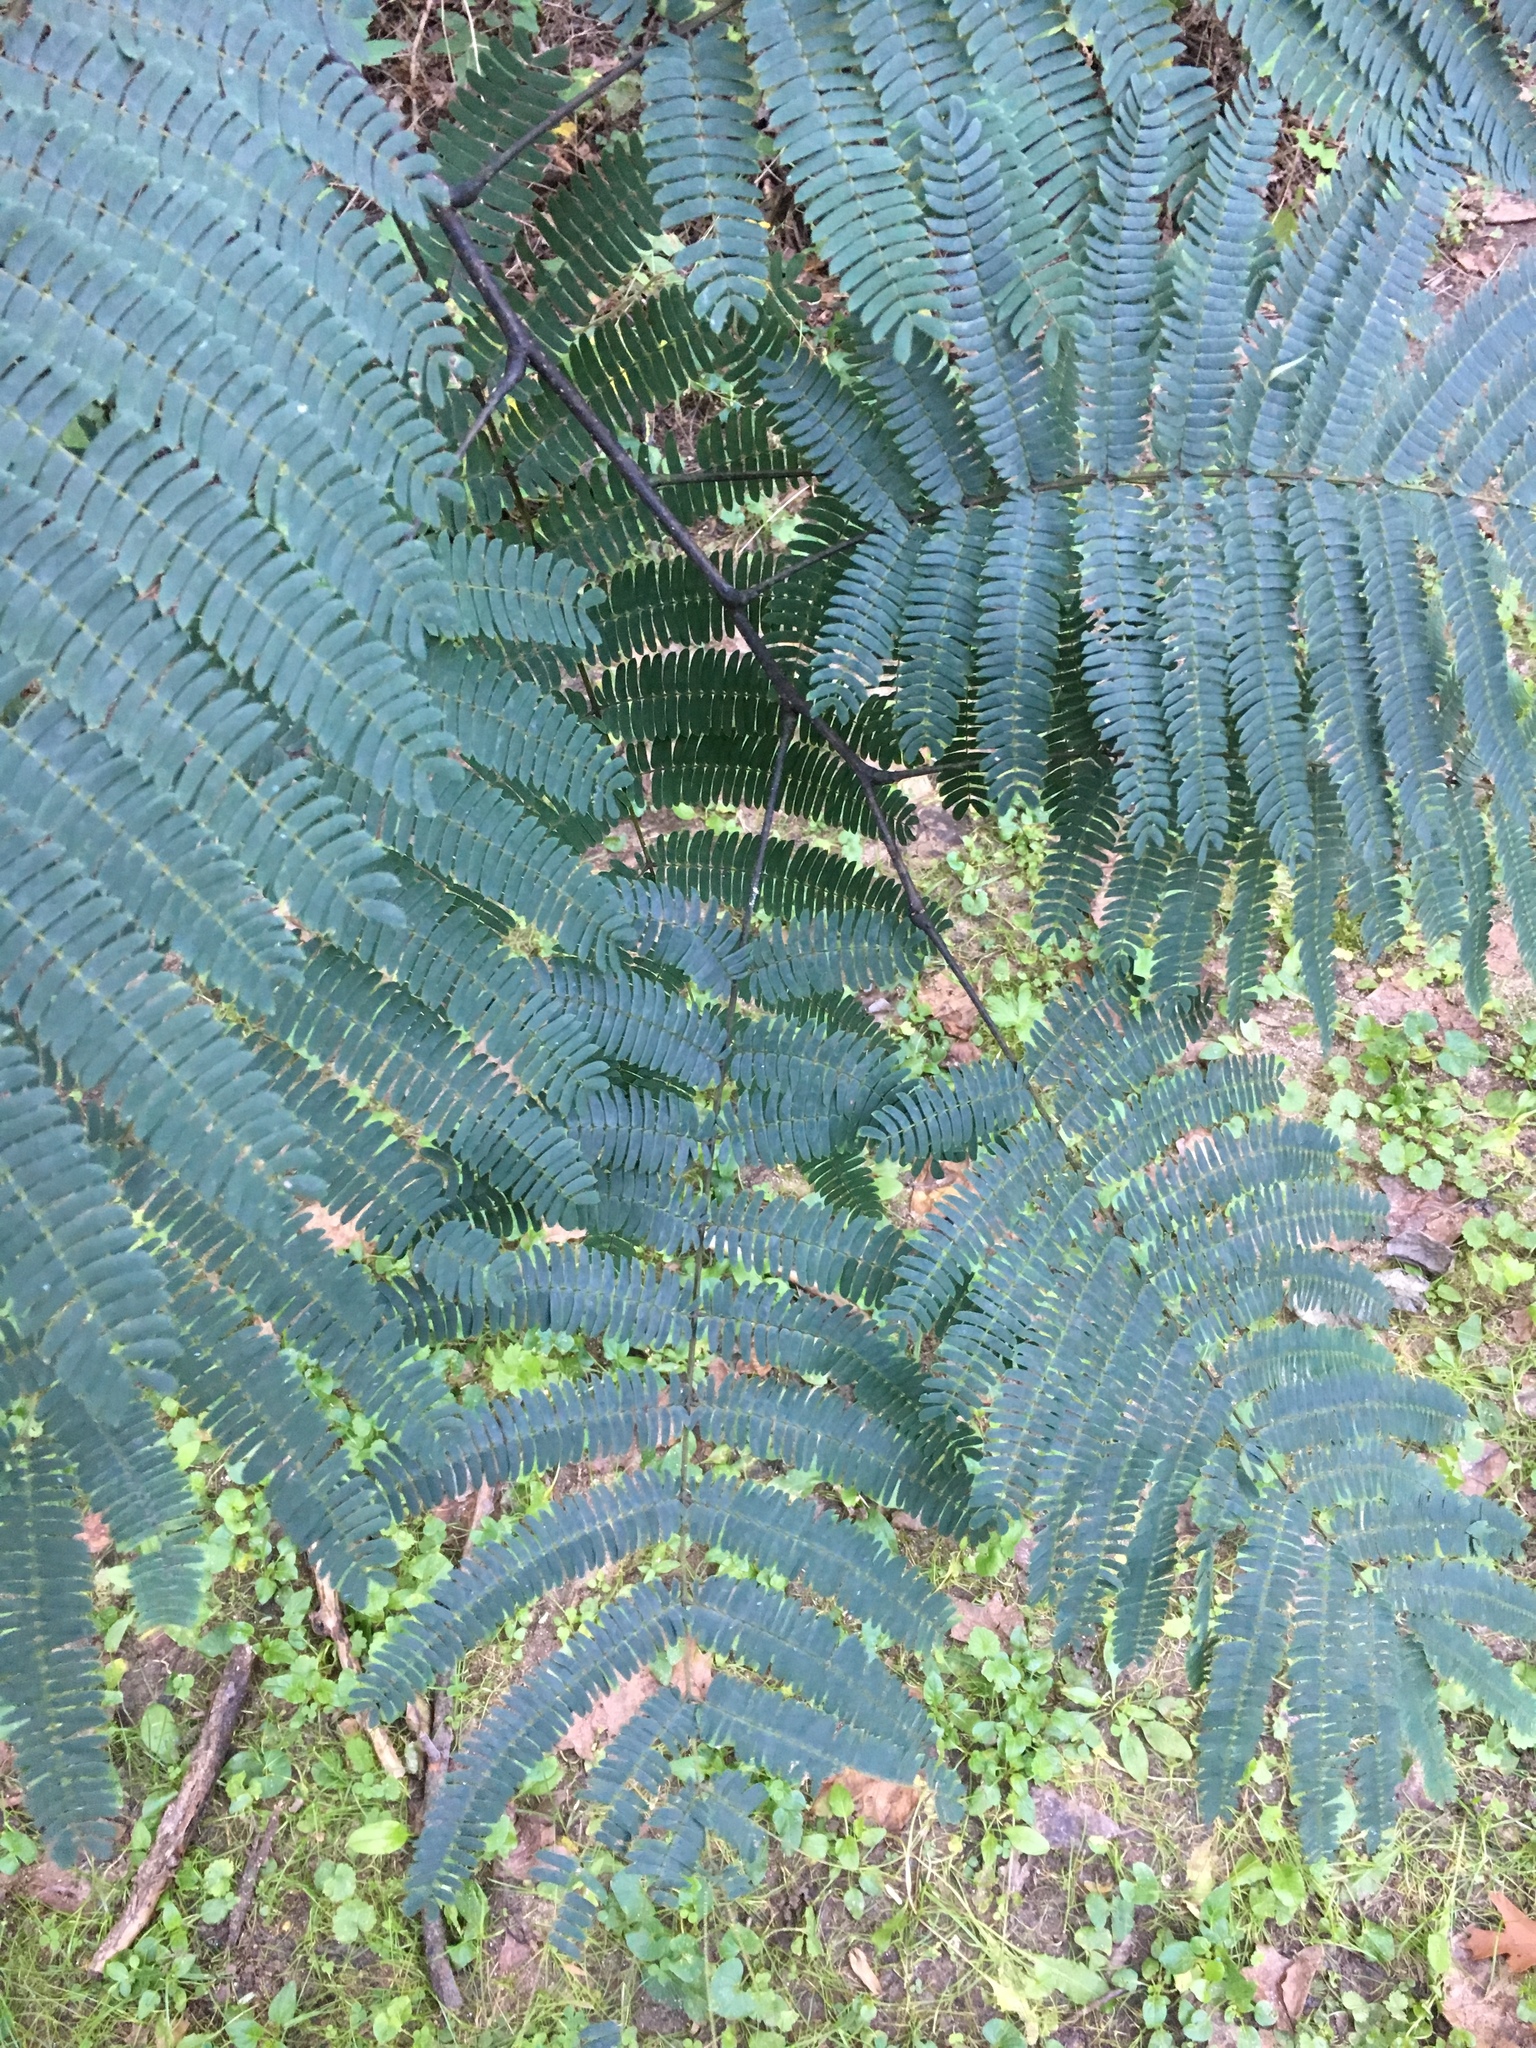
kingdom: Plantae
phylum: Tracheophyta
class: Magnoliopsida
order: Fabales
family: Fabaceae
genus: Albizia
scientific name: Albizia julibrissin
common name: Silktree
